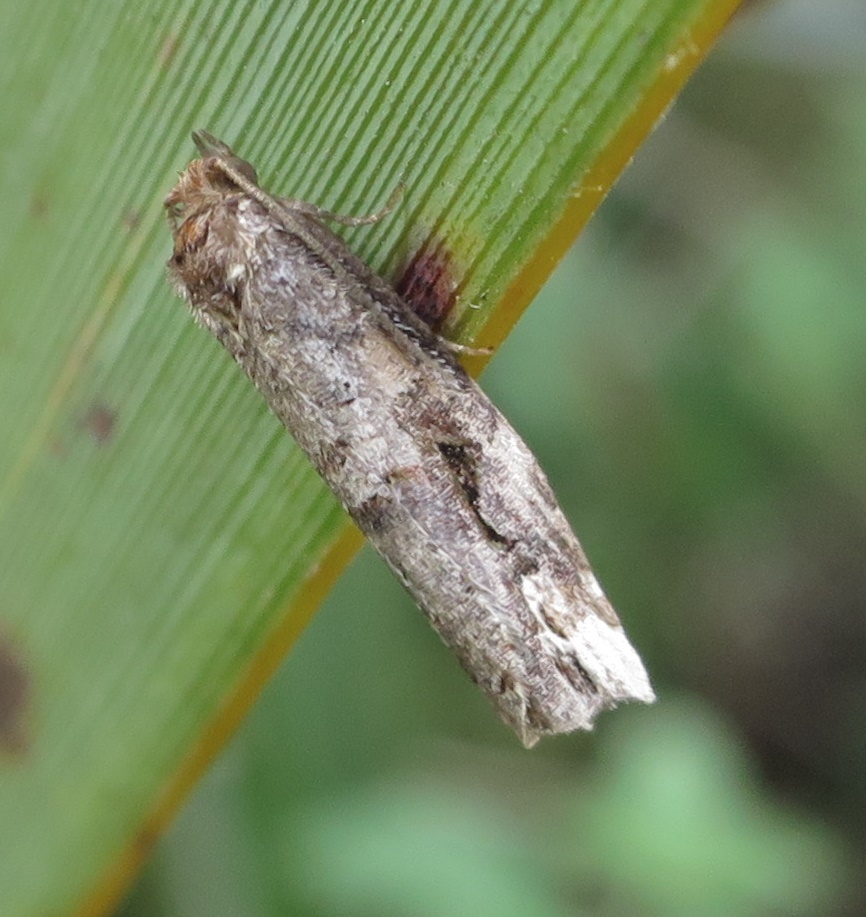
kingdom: Animalia
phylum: Arthropoda
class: Insecta
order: Lepidoptera
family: Tortricidae
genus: Epalxiphora
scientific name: Epalxiphora axenana
